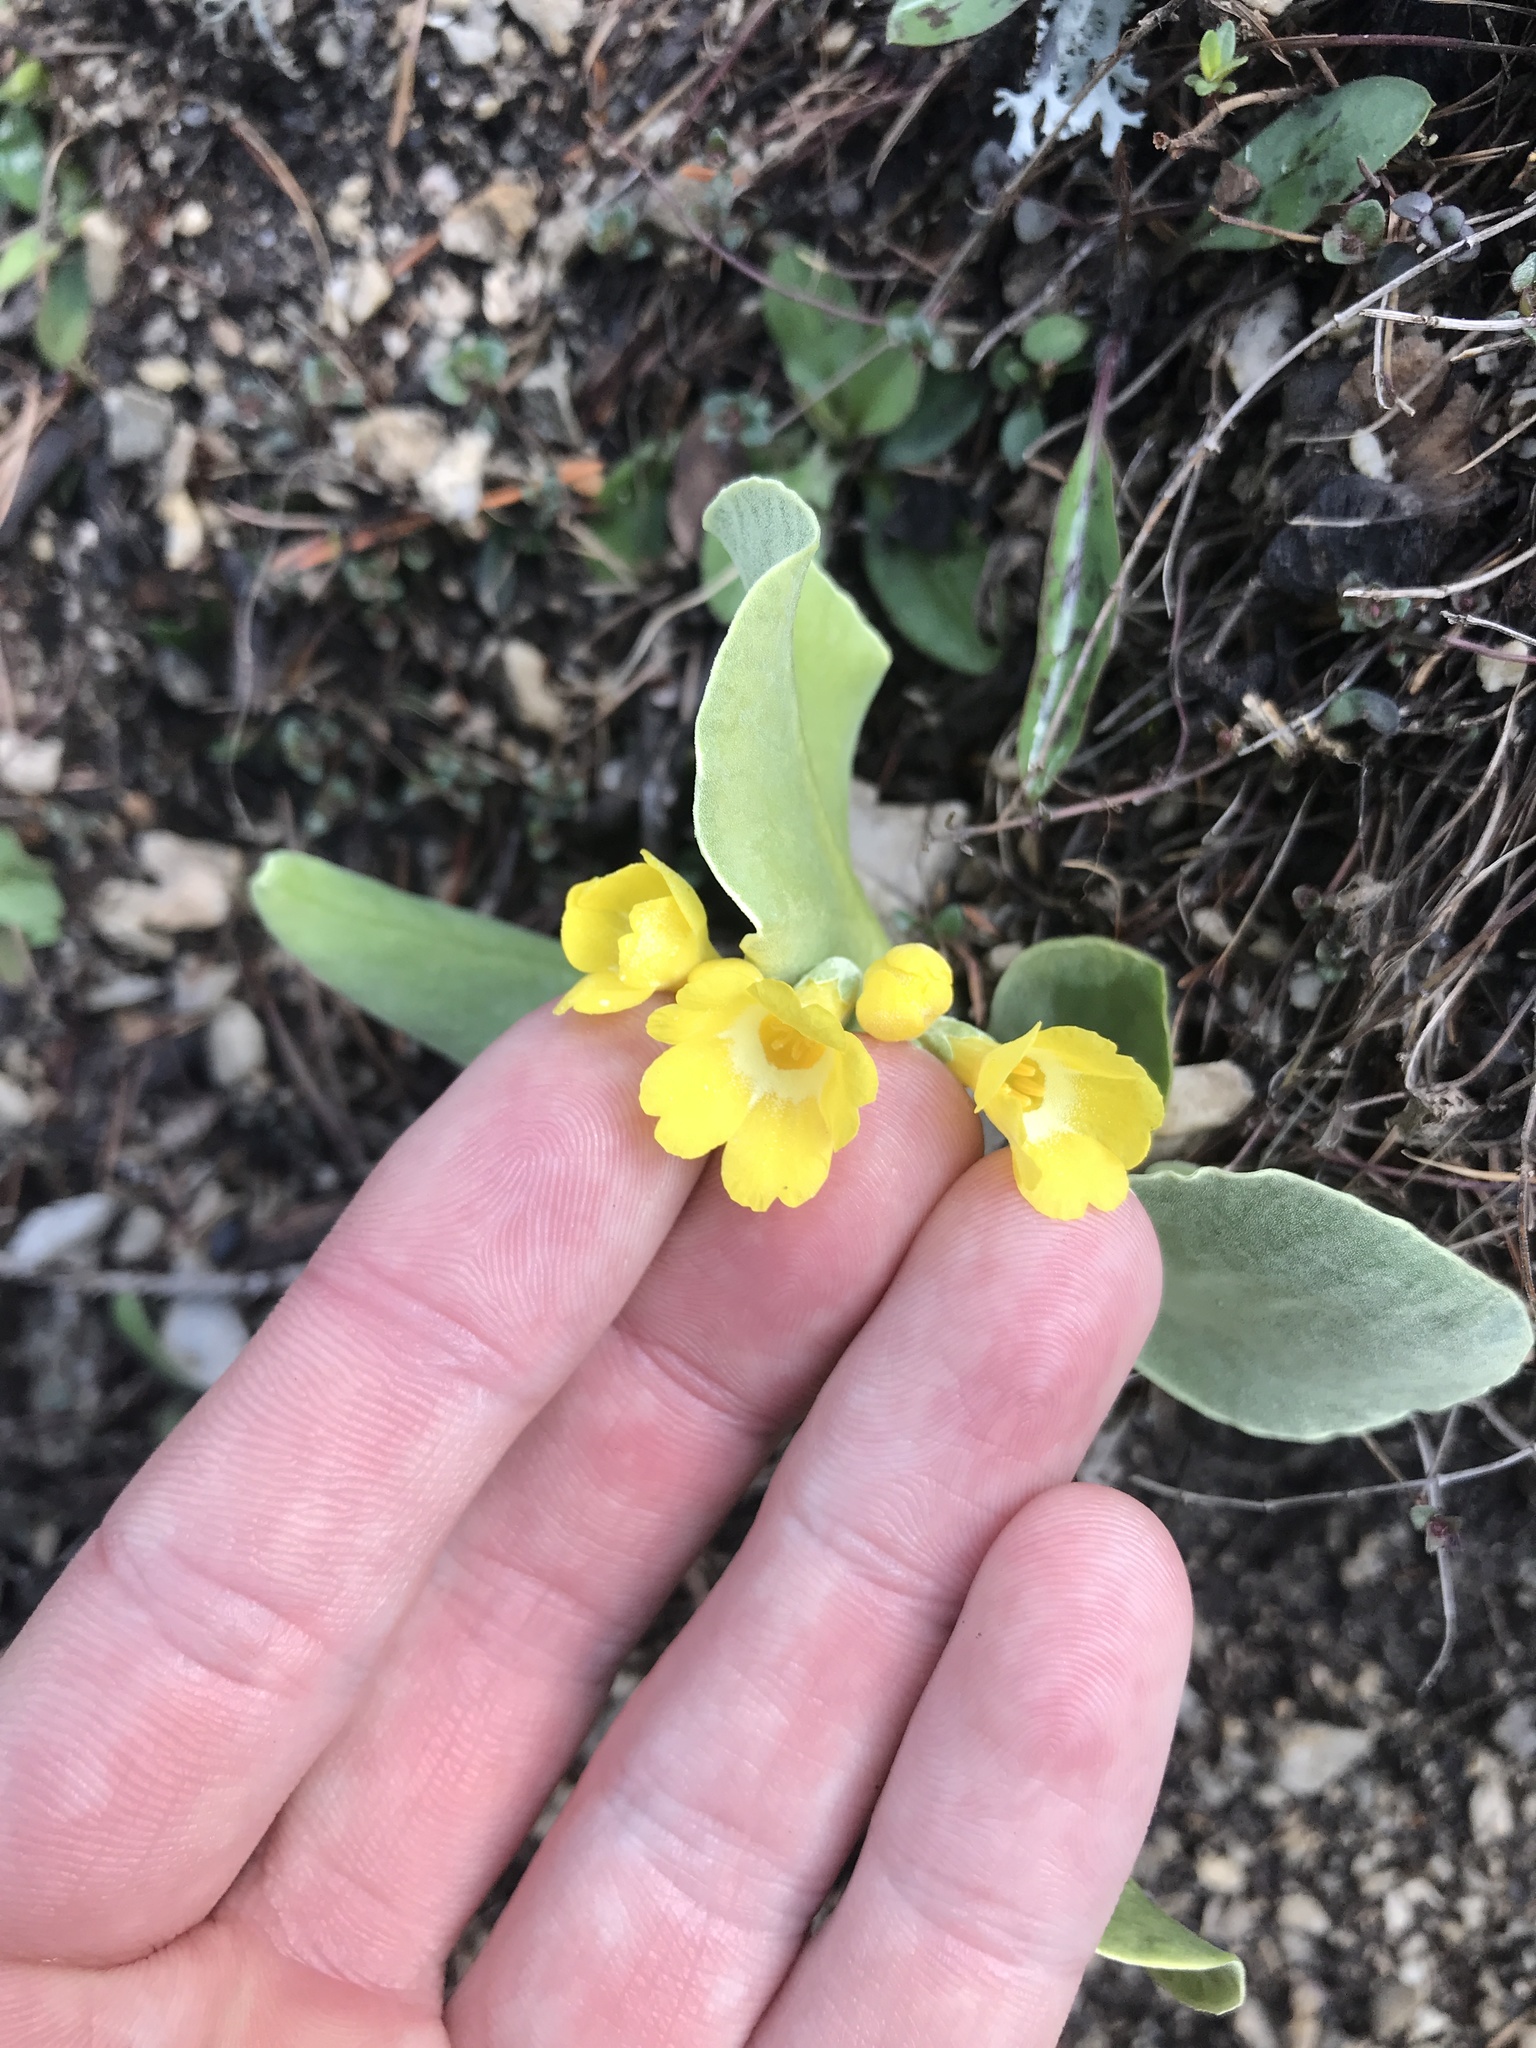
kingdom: Plantae
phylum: Tracheophyta
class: Magnoliopsida
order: Ericales
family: Primulaceae
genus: Primula
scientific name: Primula auricula
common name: Auricula
